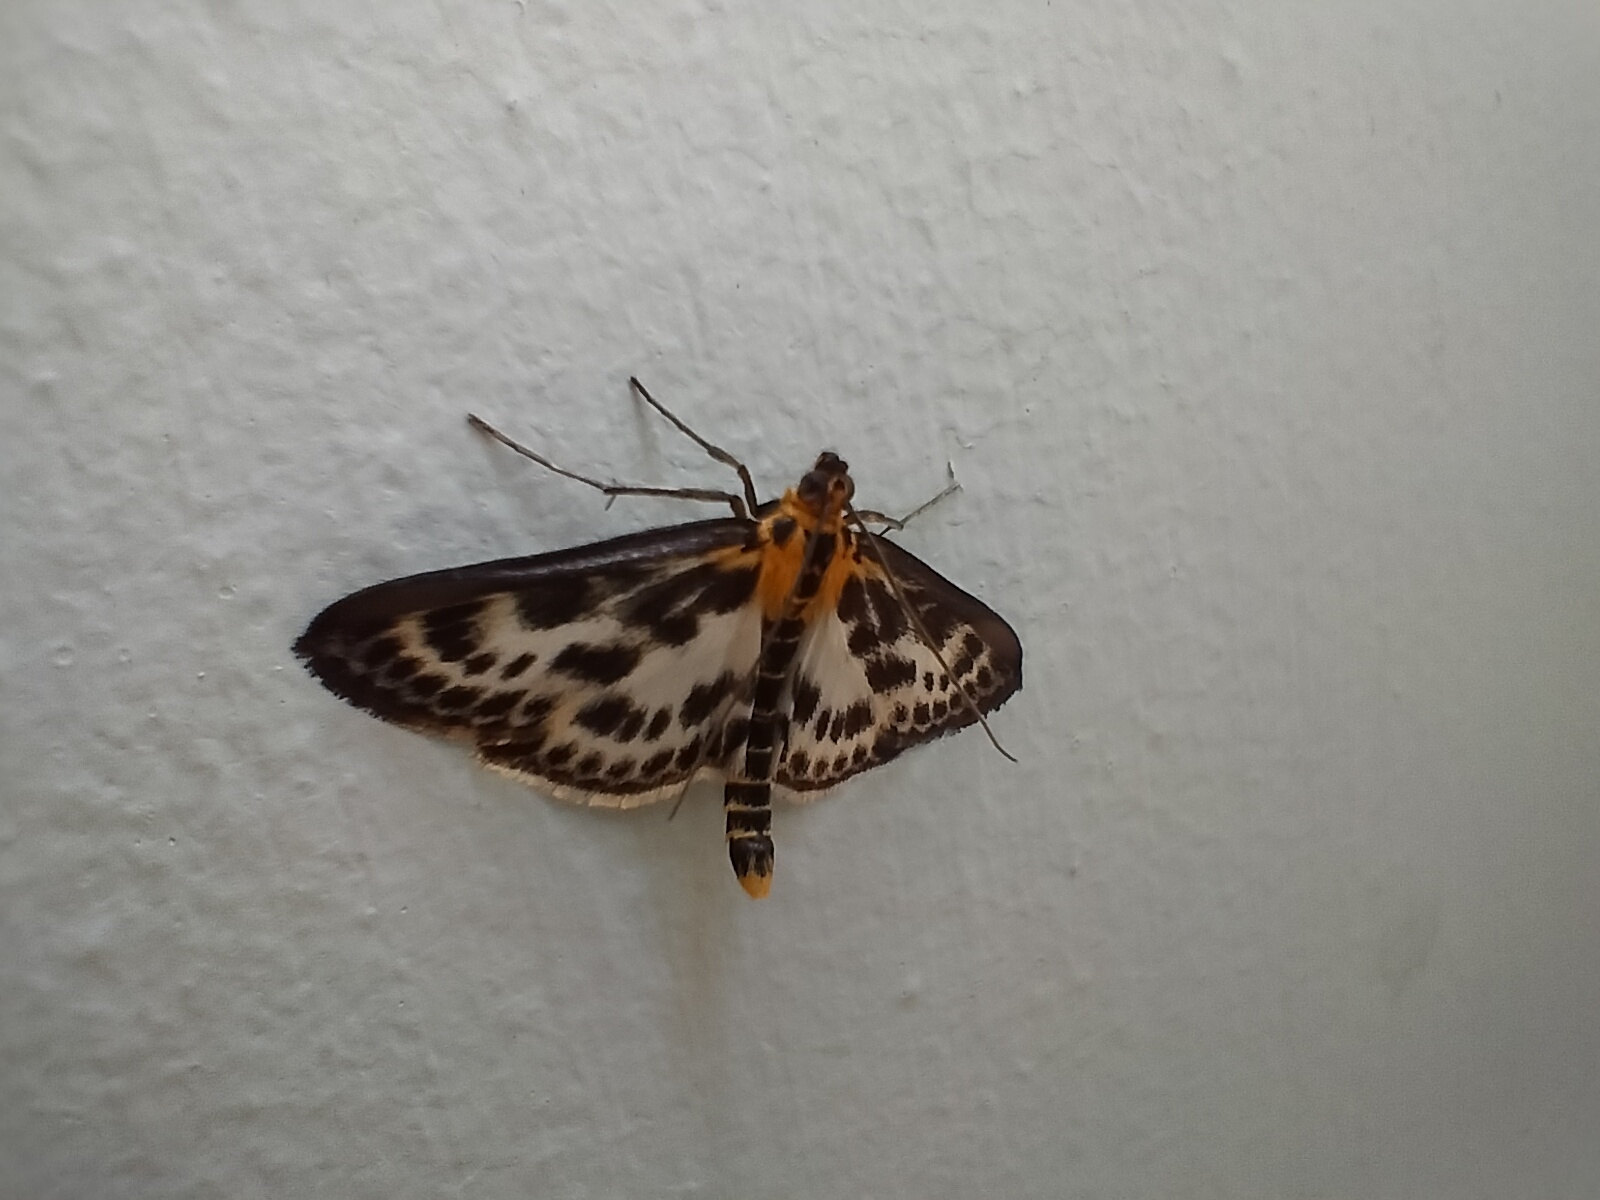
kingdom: Animalia
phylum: Arthropoda
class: Insecta
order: Lepidoptera
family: Crambidae
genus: Anania
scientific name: Anania hortulata
